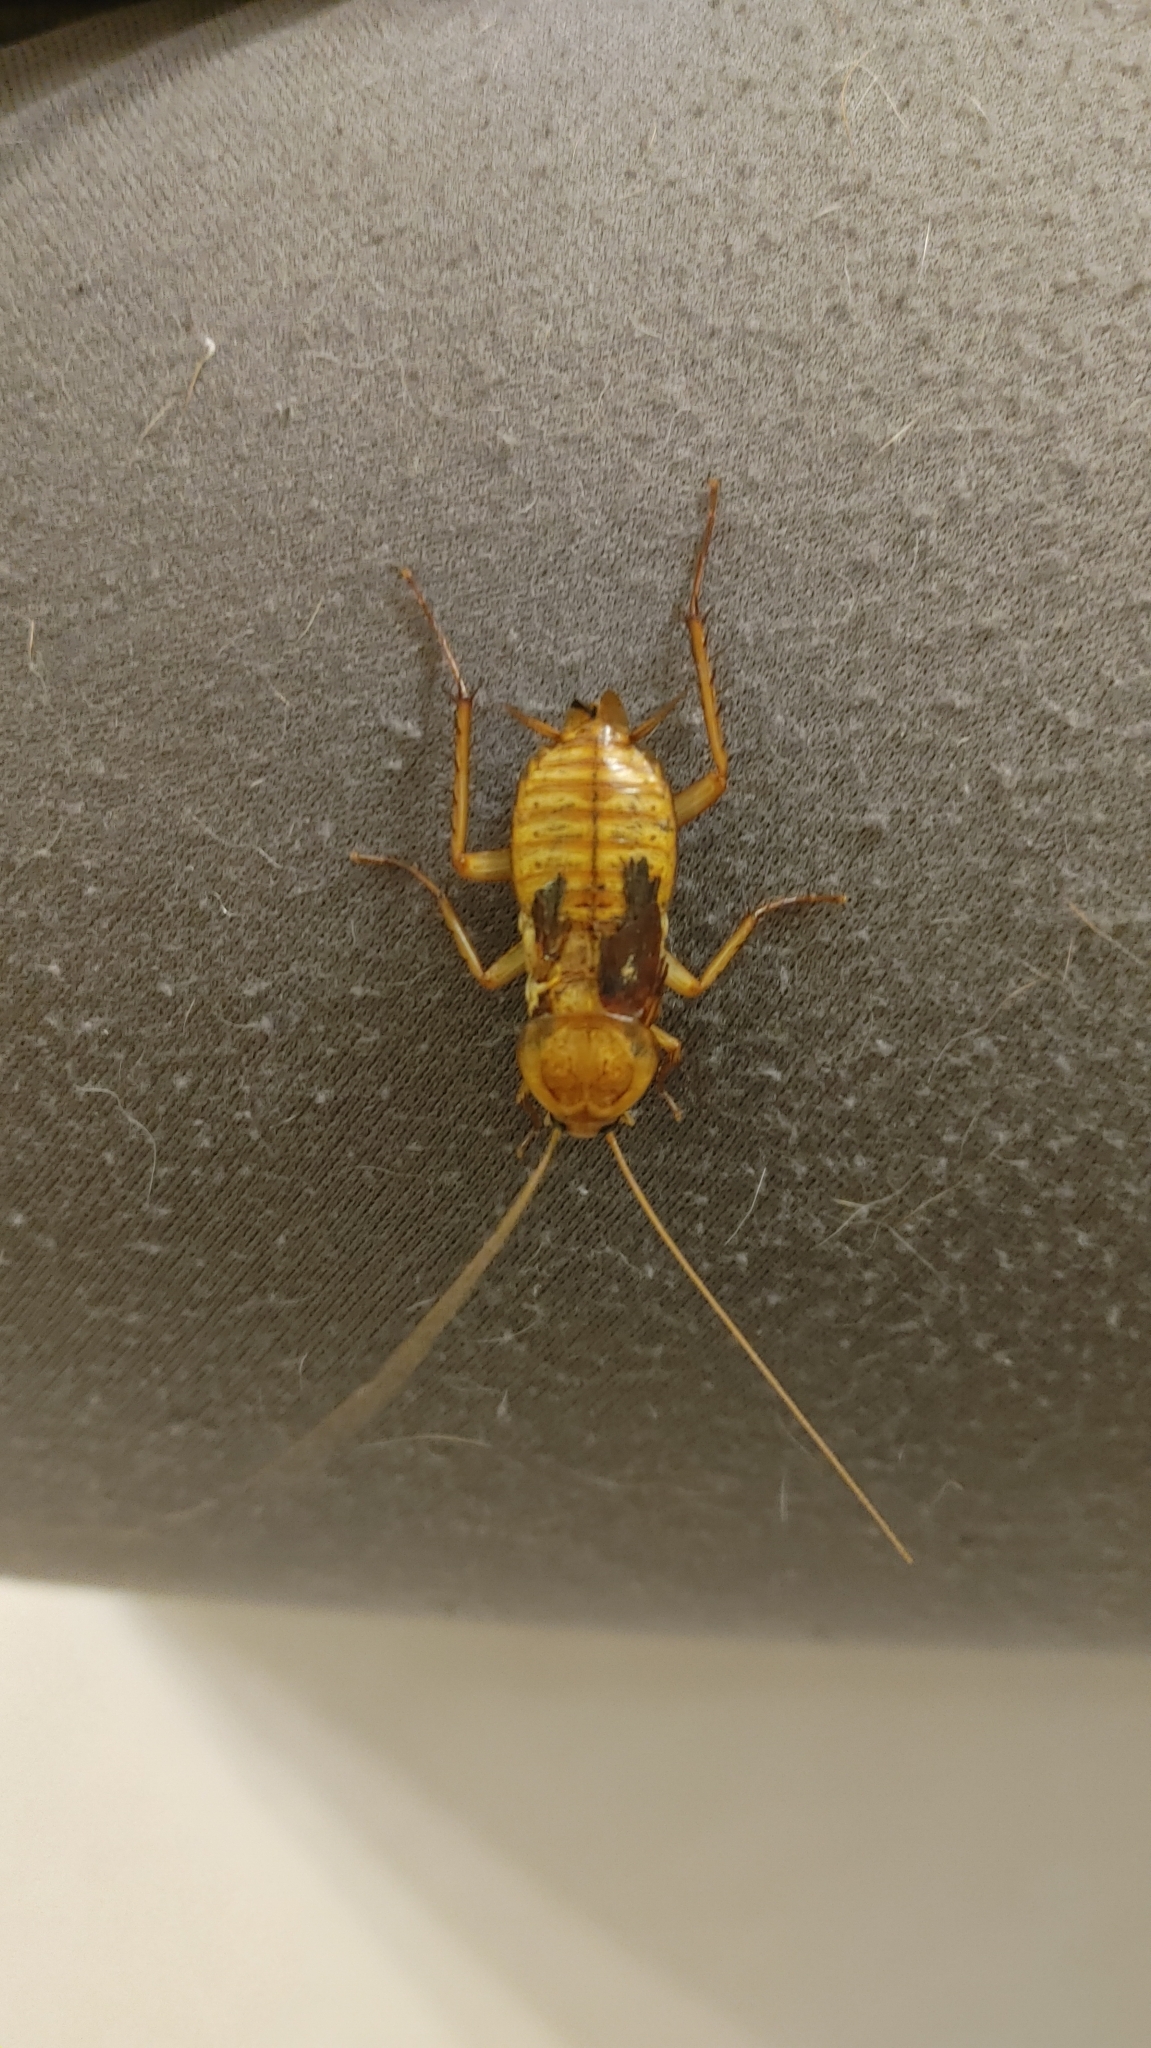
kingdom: Animalia
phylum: Arthropoda
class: Insecta
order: Blattodea
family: Blattidae
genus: Periplaneta
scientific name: Periplaneta americana
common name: American cockroach
